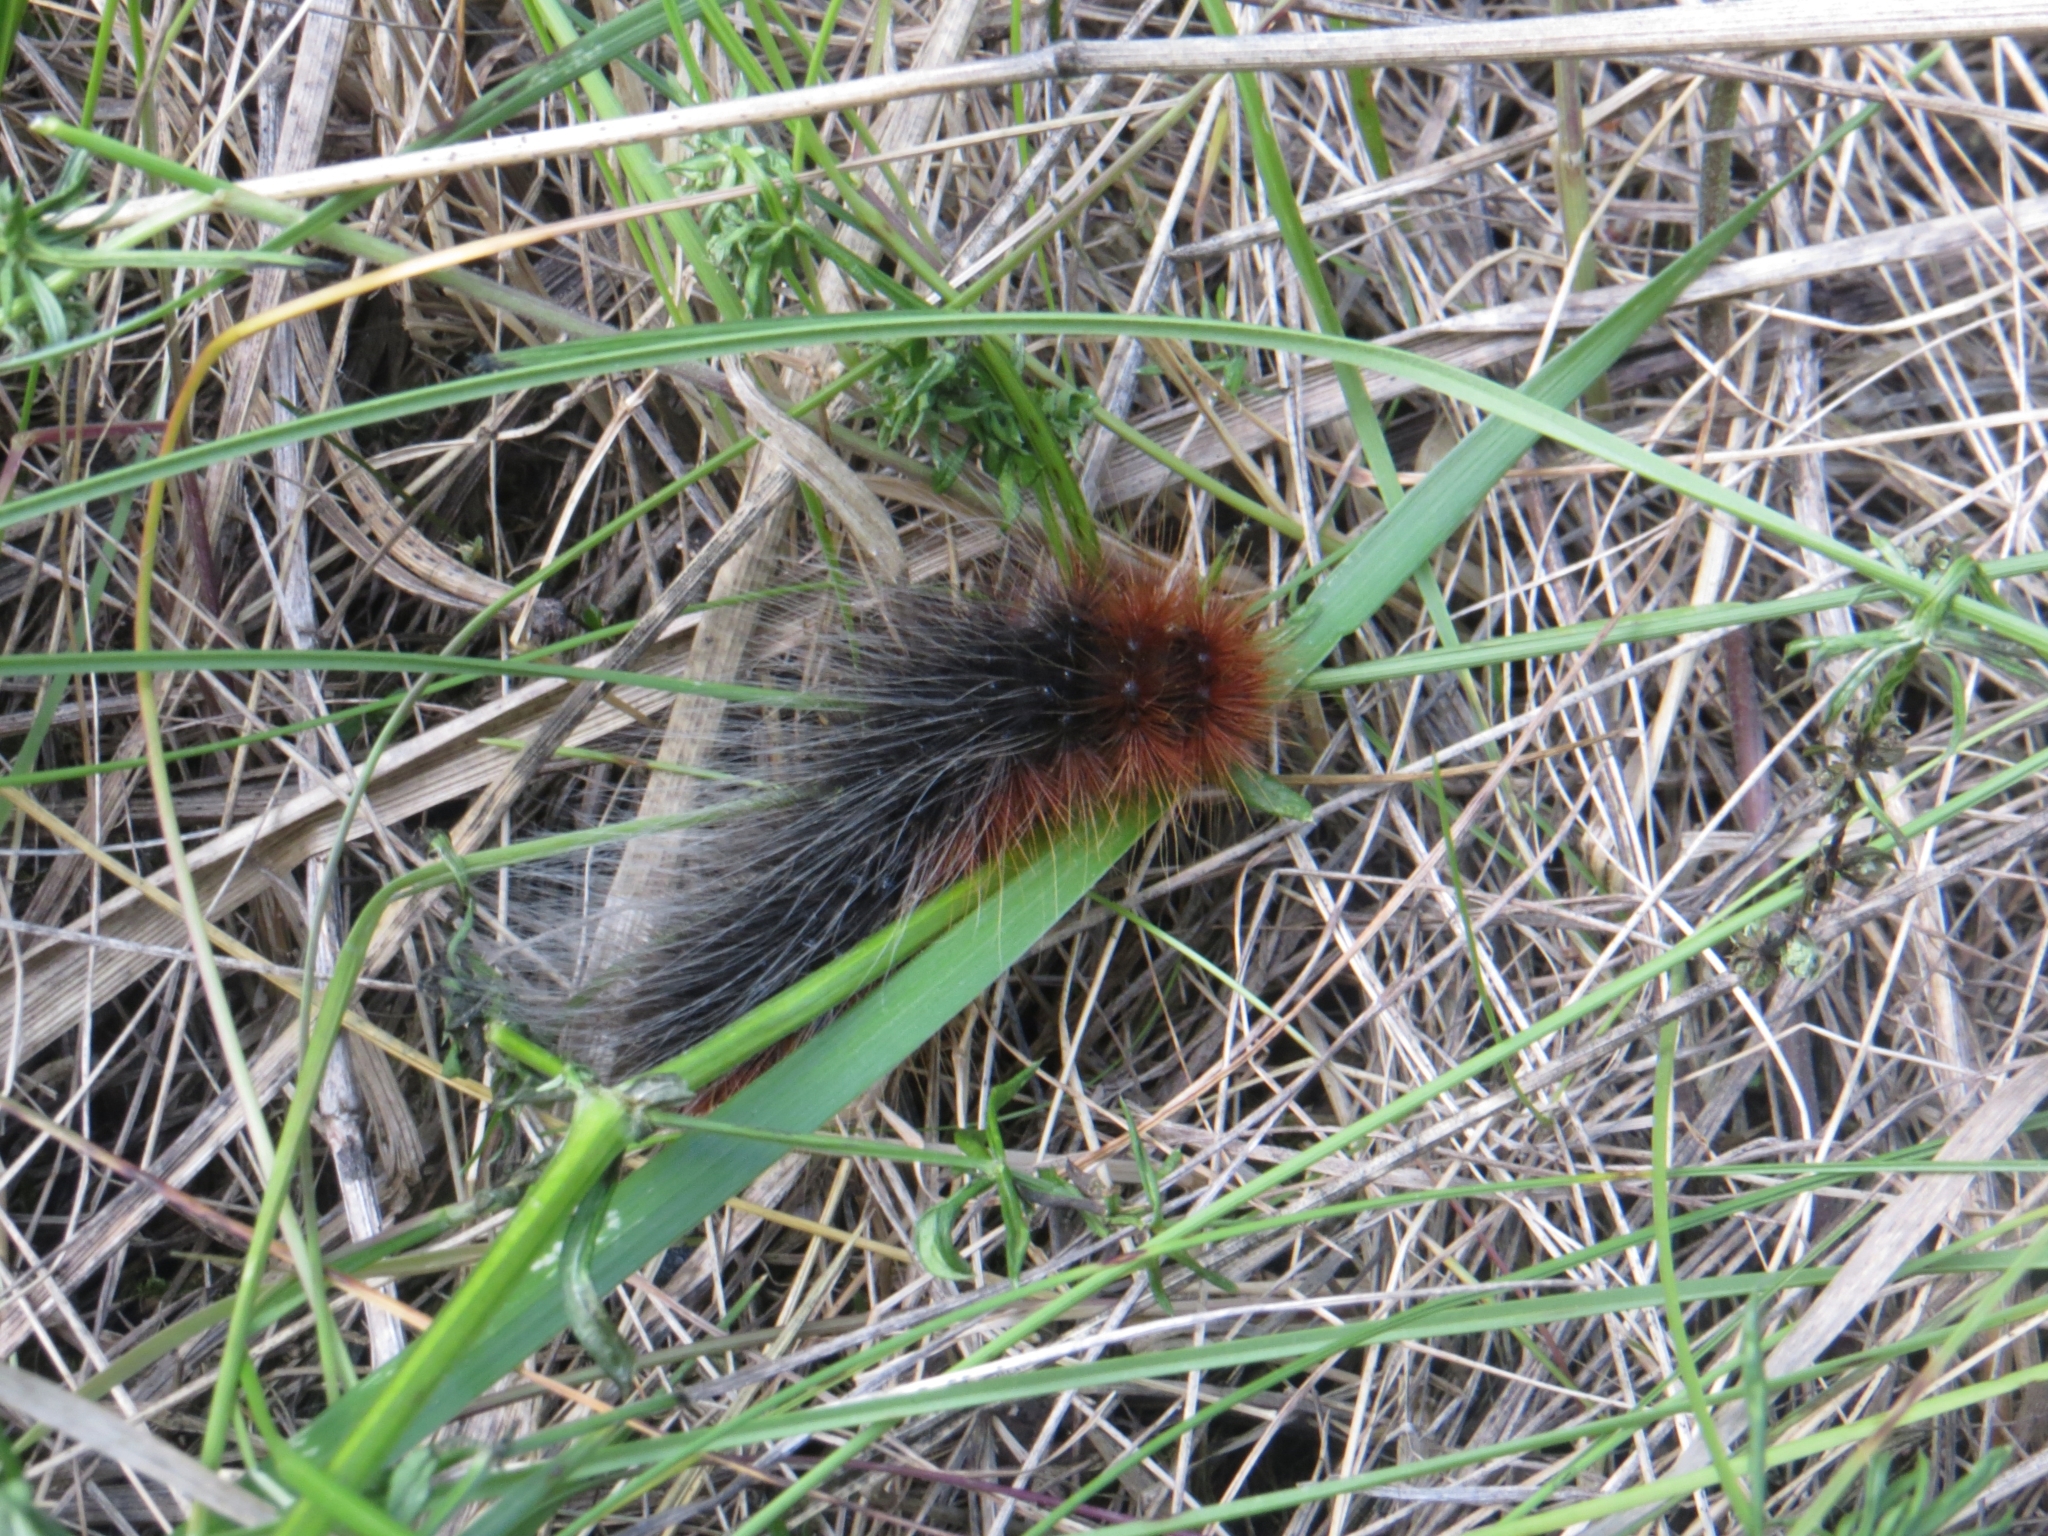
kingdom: Animalia
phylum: Arthropoda
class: Insecta
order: Lepidoptera
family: Erebidae
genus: Arctia
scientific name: Arctia caja
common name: Garden tiger
